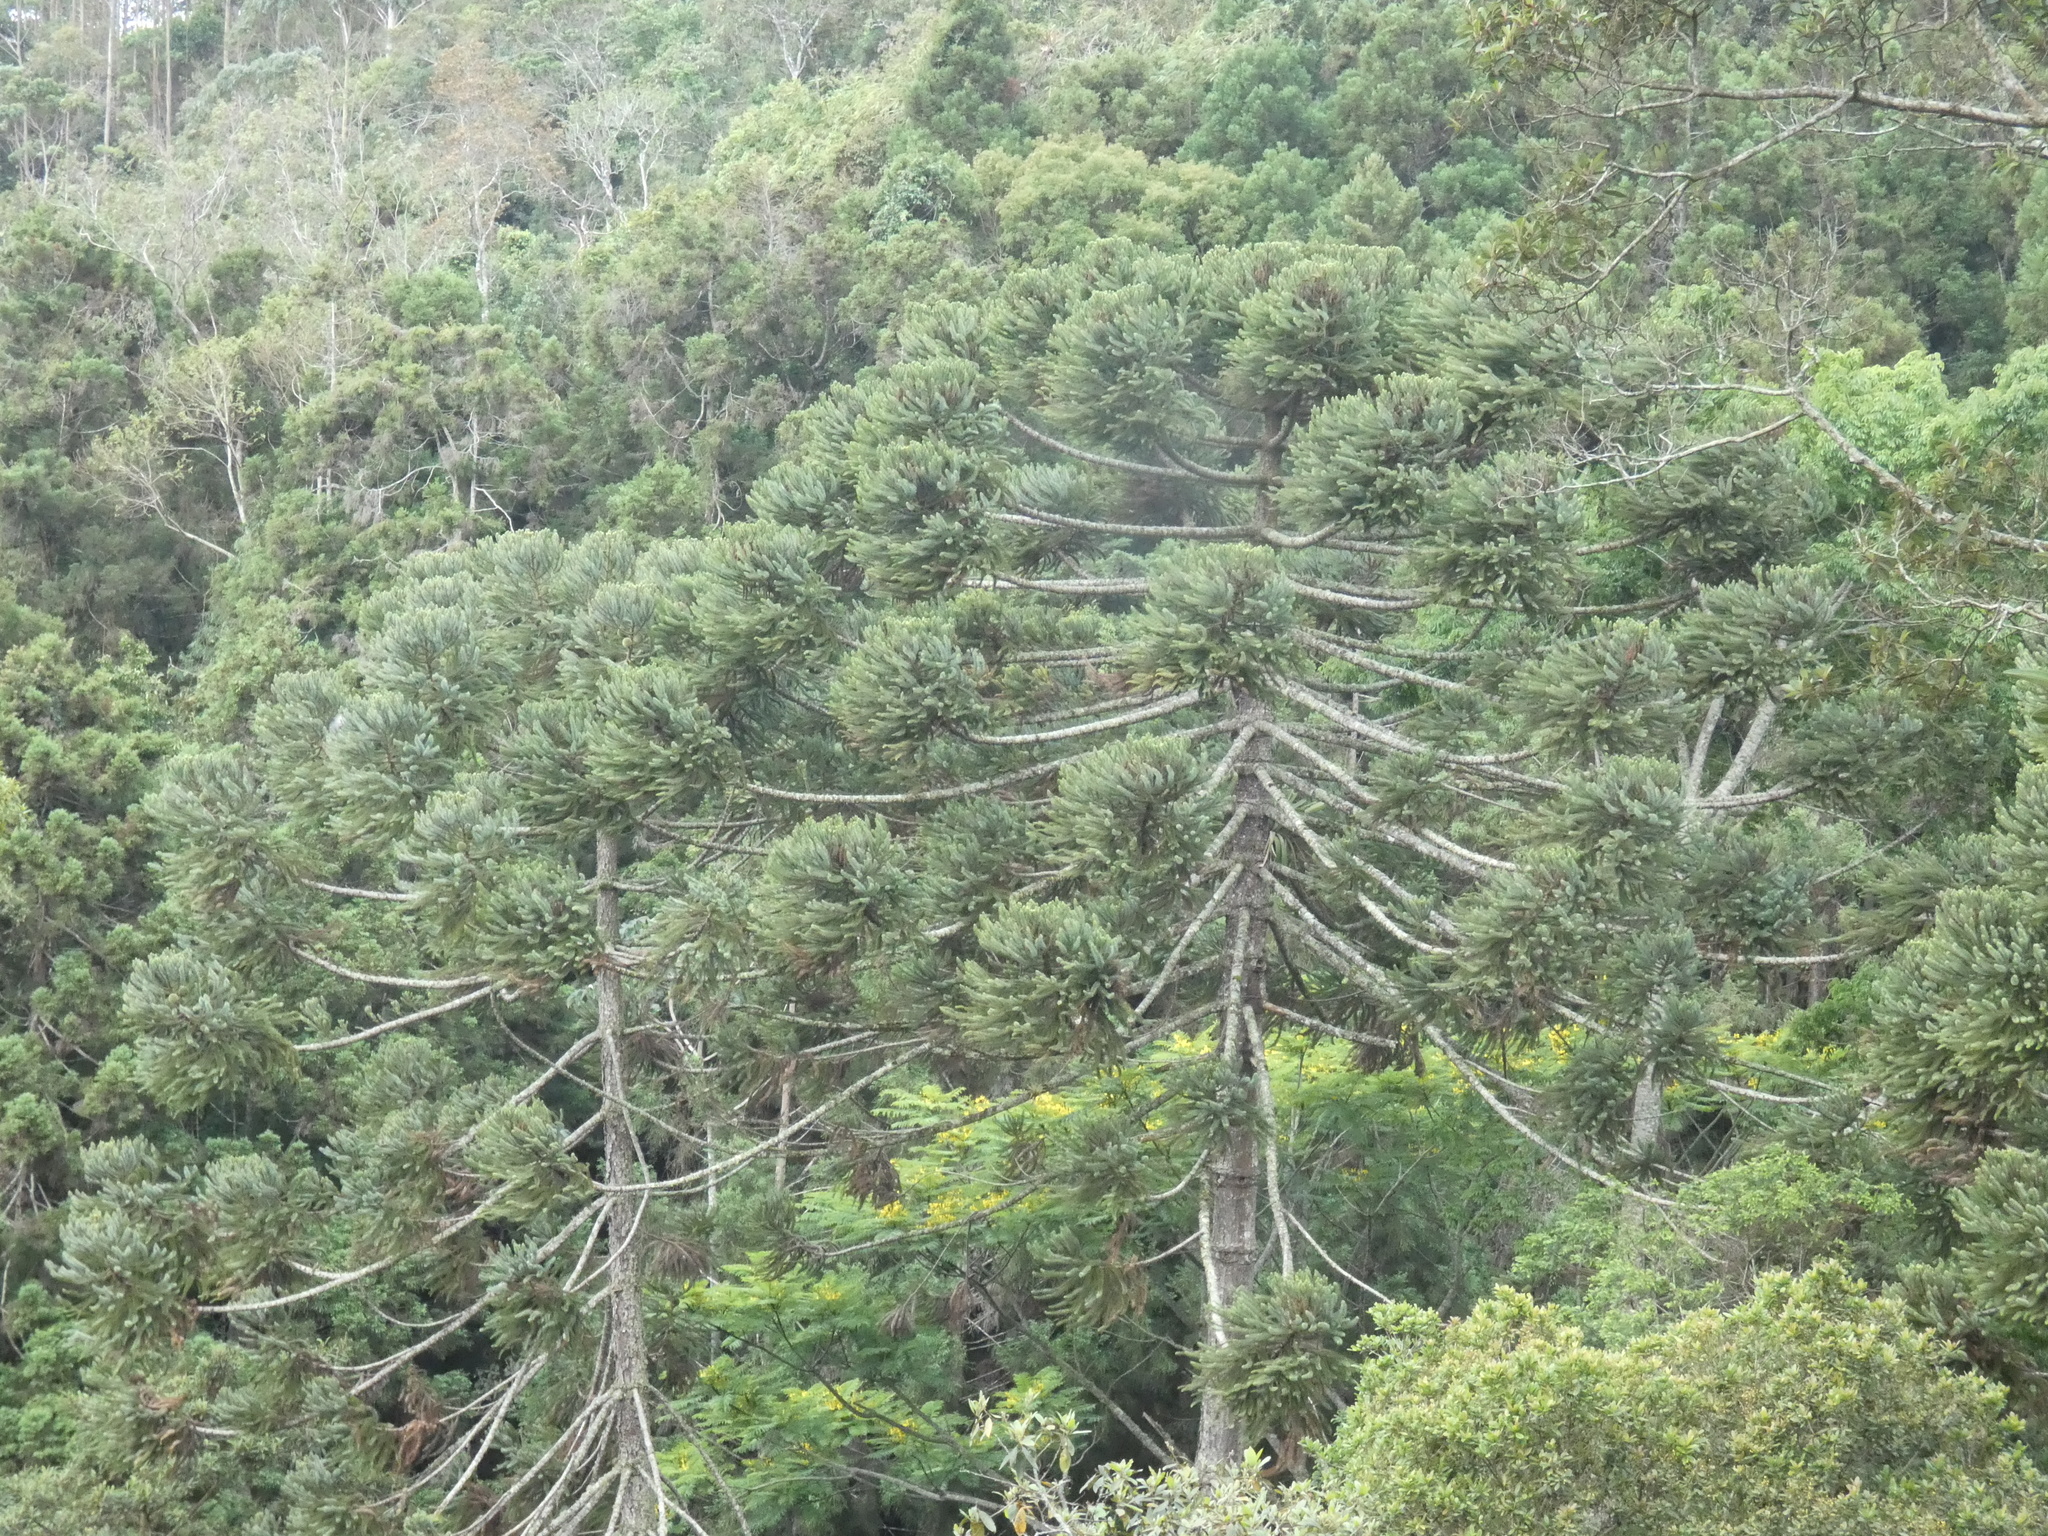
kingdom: Plantae
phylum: Tracheophyta
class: Pinopsida
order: Pinales
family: Araucariaceae
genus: Araucaria
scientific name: Araucaria angustifolia
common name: Candelabra tree
